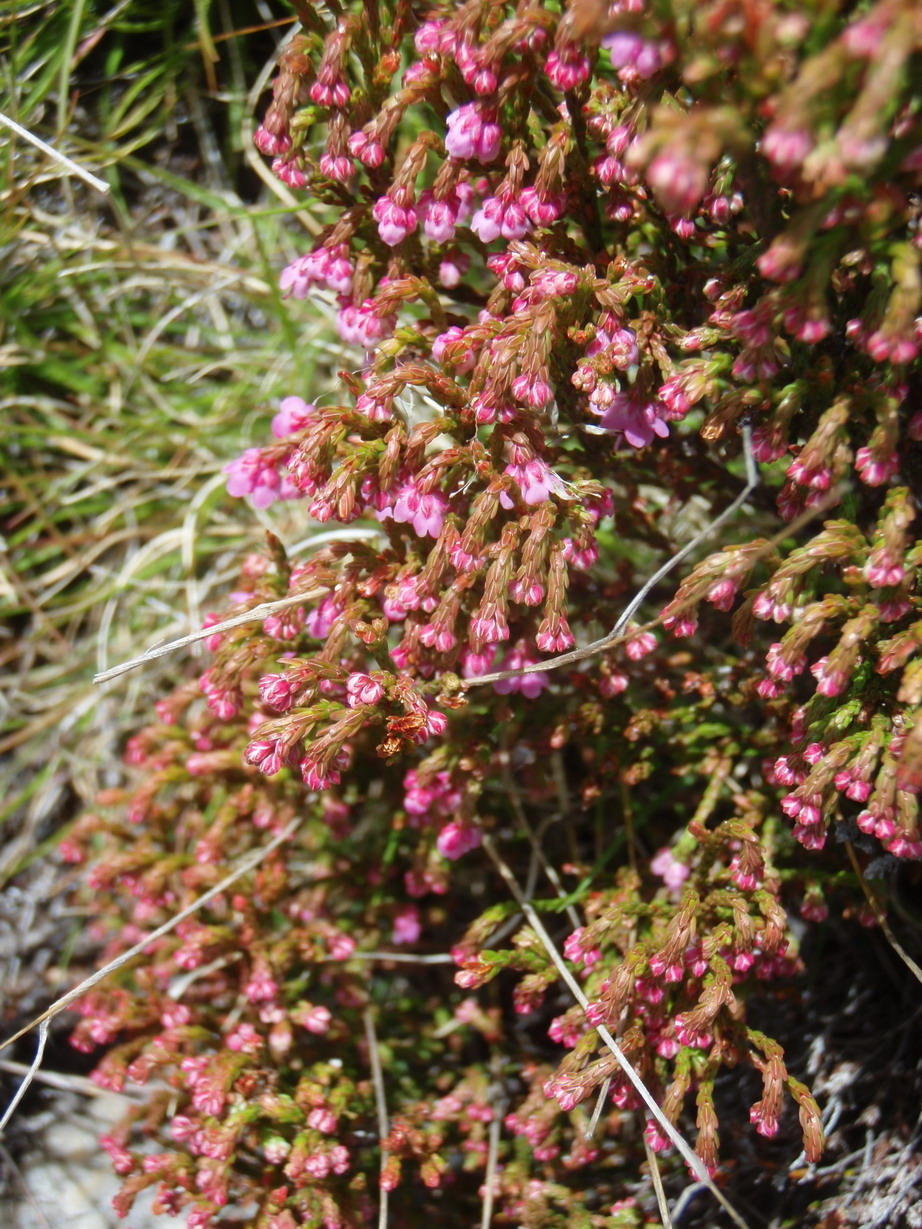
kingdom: Plantae
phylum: Tracheophyta
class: Magnoliopsida
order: Ericales
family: Ericaceae
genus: Erica
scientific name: Erica humifusa
